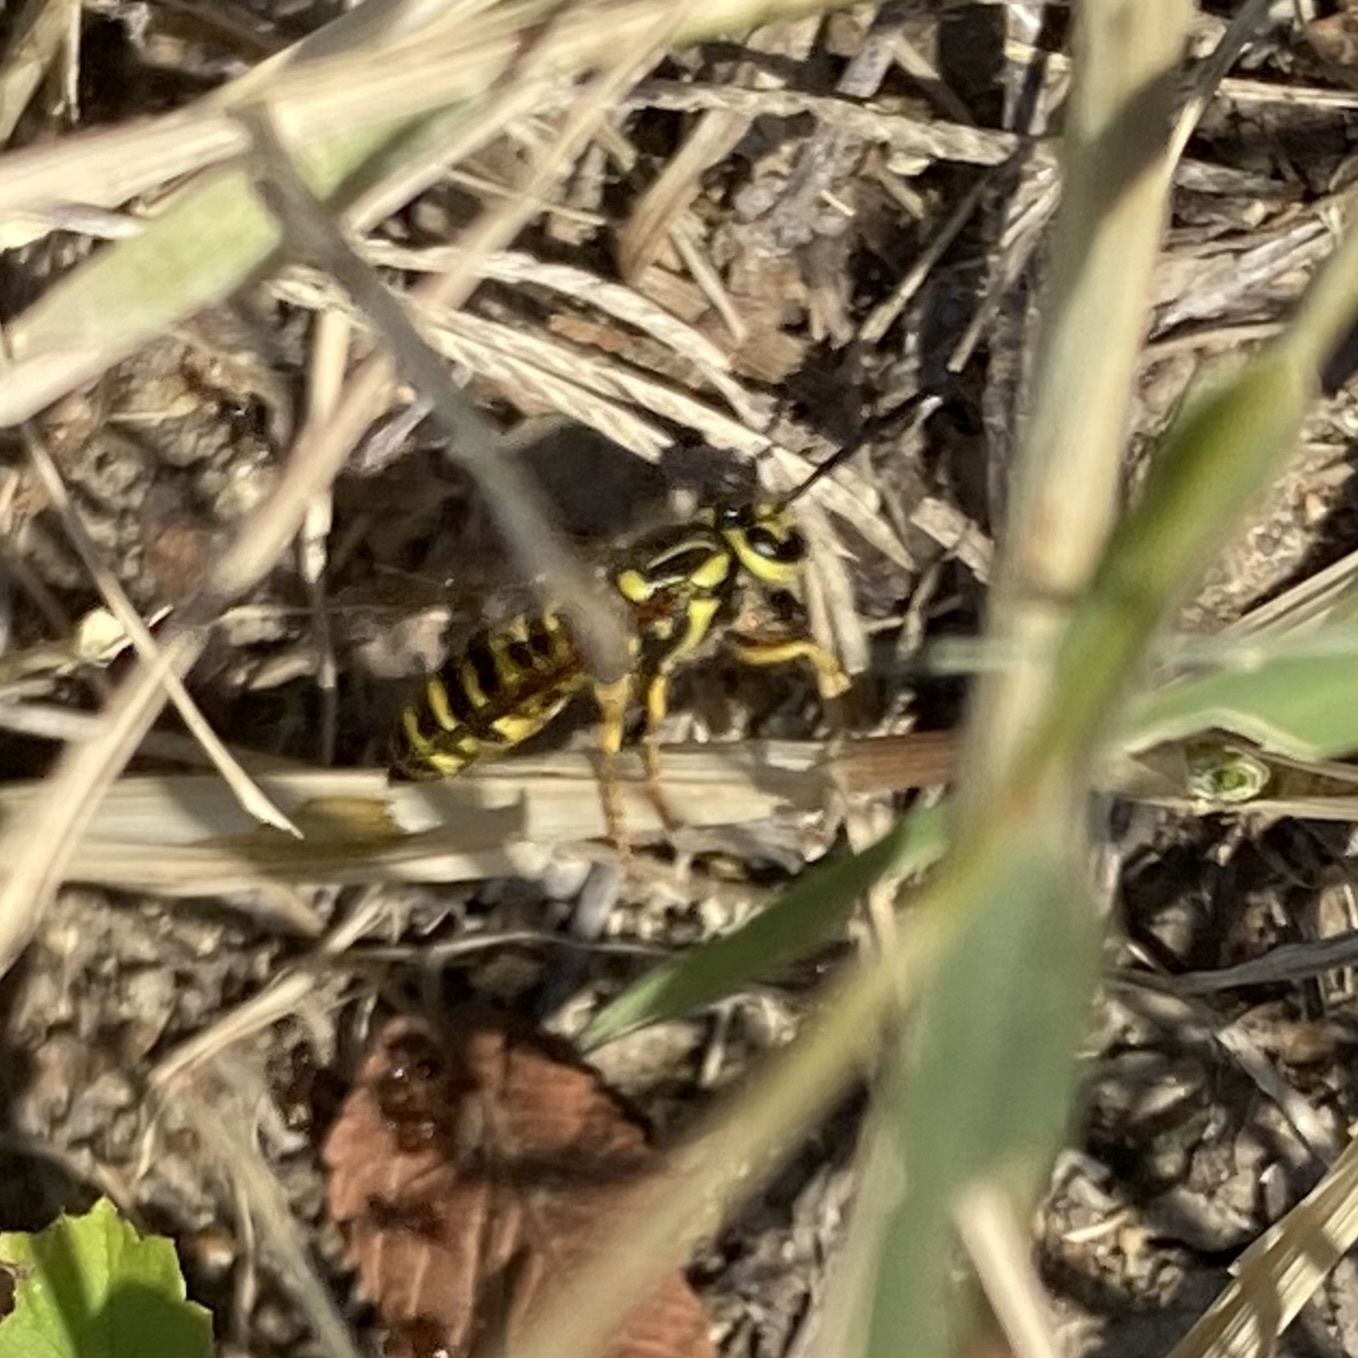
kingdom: Animalia
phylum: Arthropoda
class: Insecta
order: Hymenoptera
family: Vespidae
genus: Vespula
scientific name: Vespula squamosa
